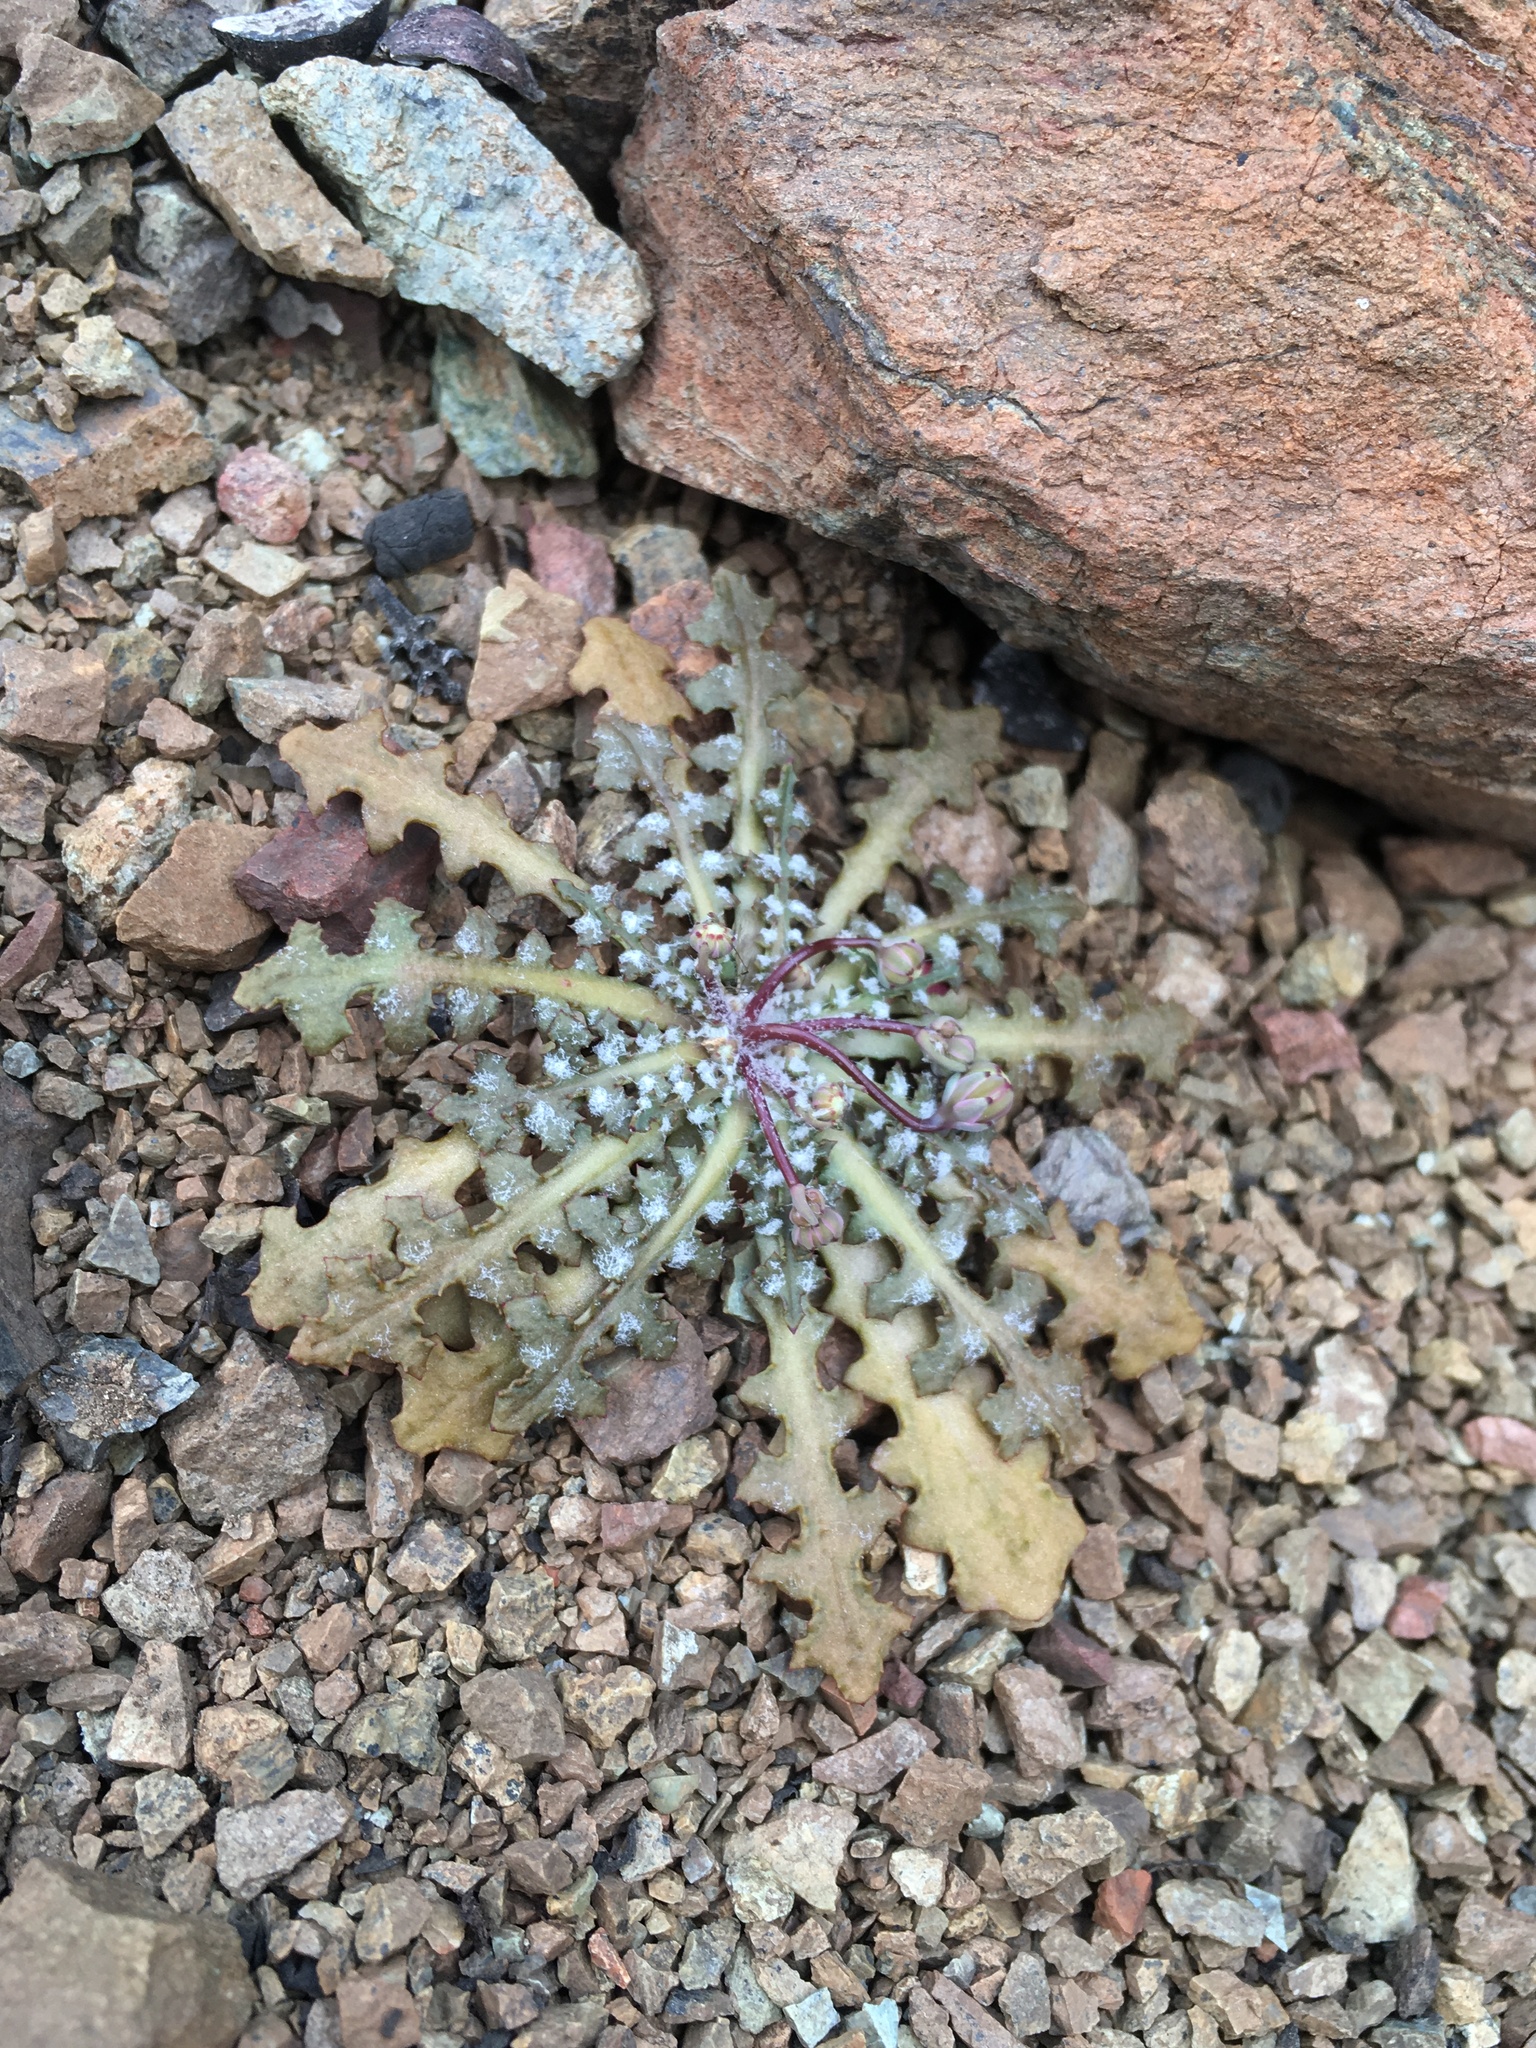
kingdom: Plantae
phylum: Tracheophyta
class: Magnoliopsida
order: Asterales
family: Asteraceae
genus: Malacothrix
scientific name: Malacothrix floccifera
